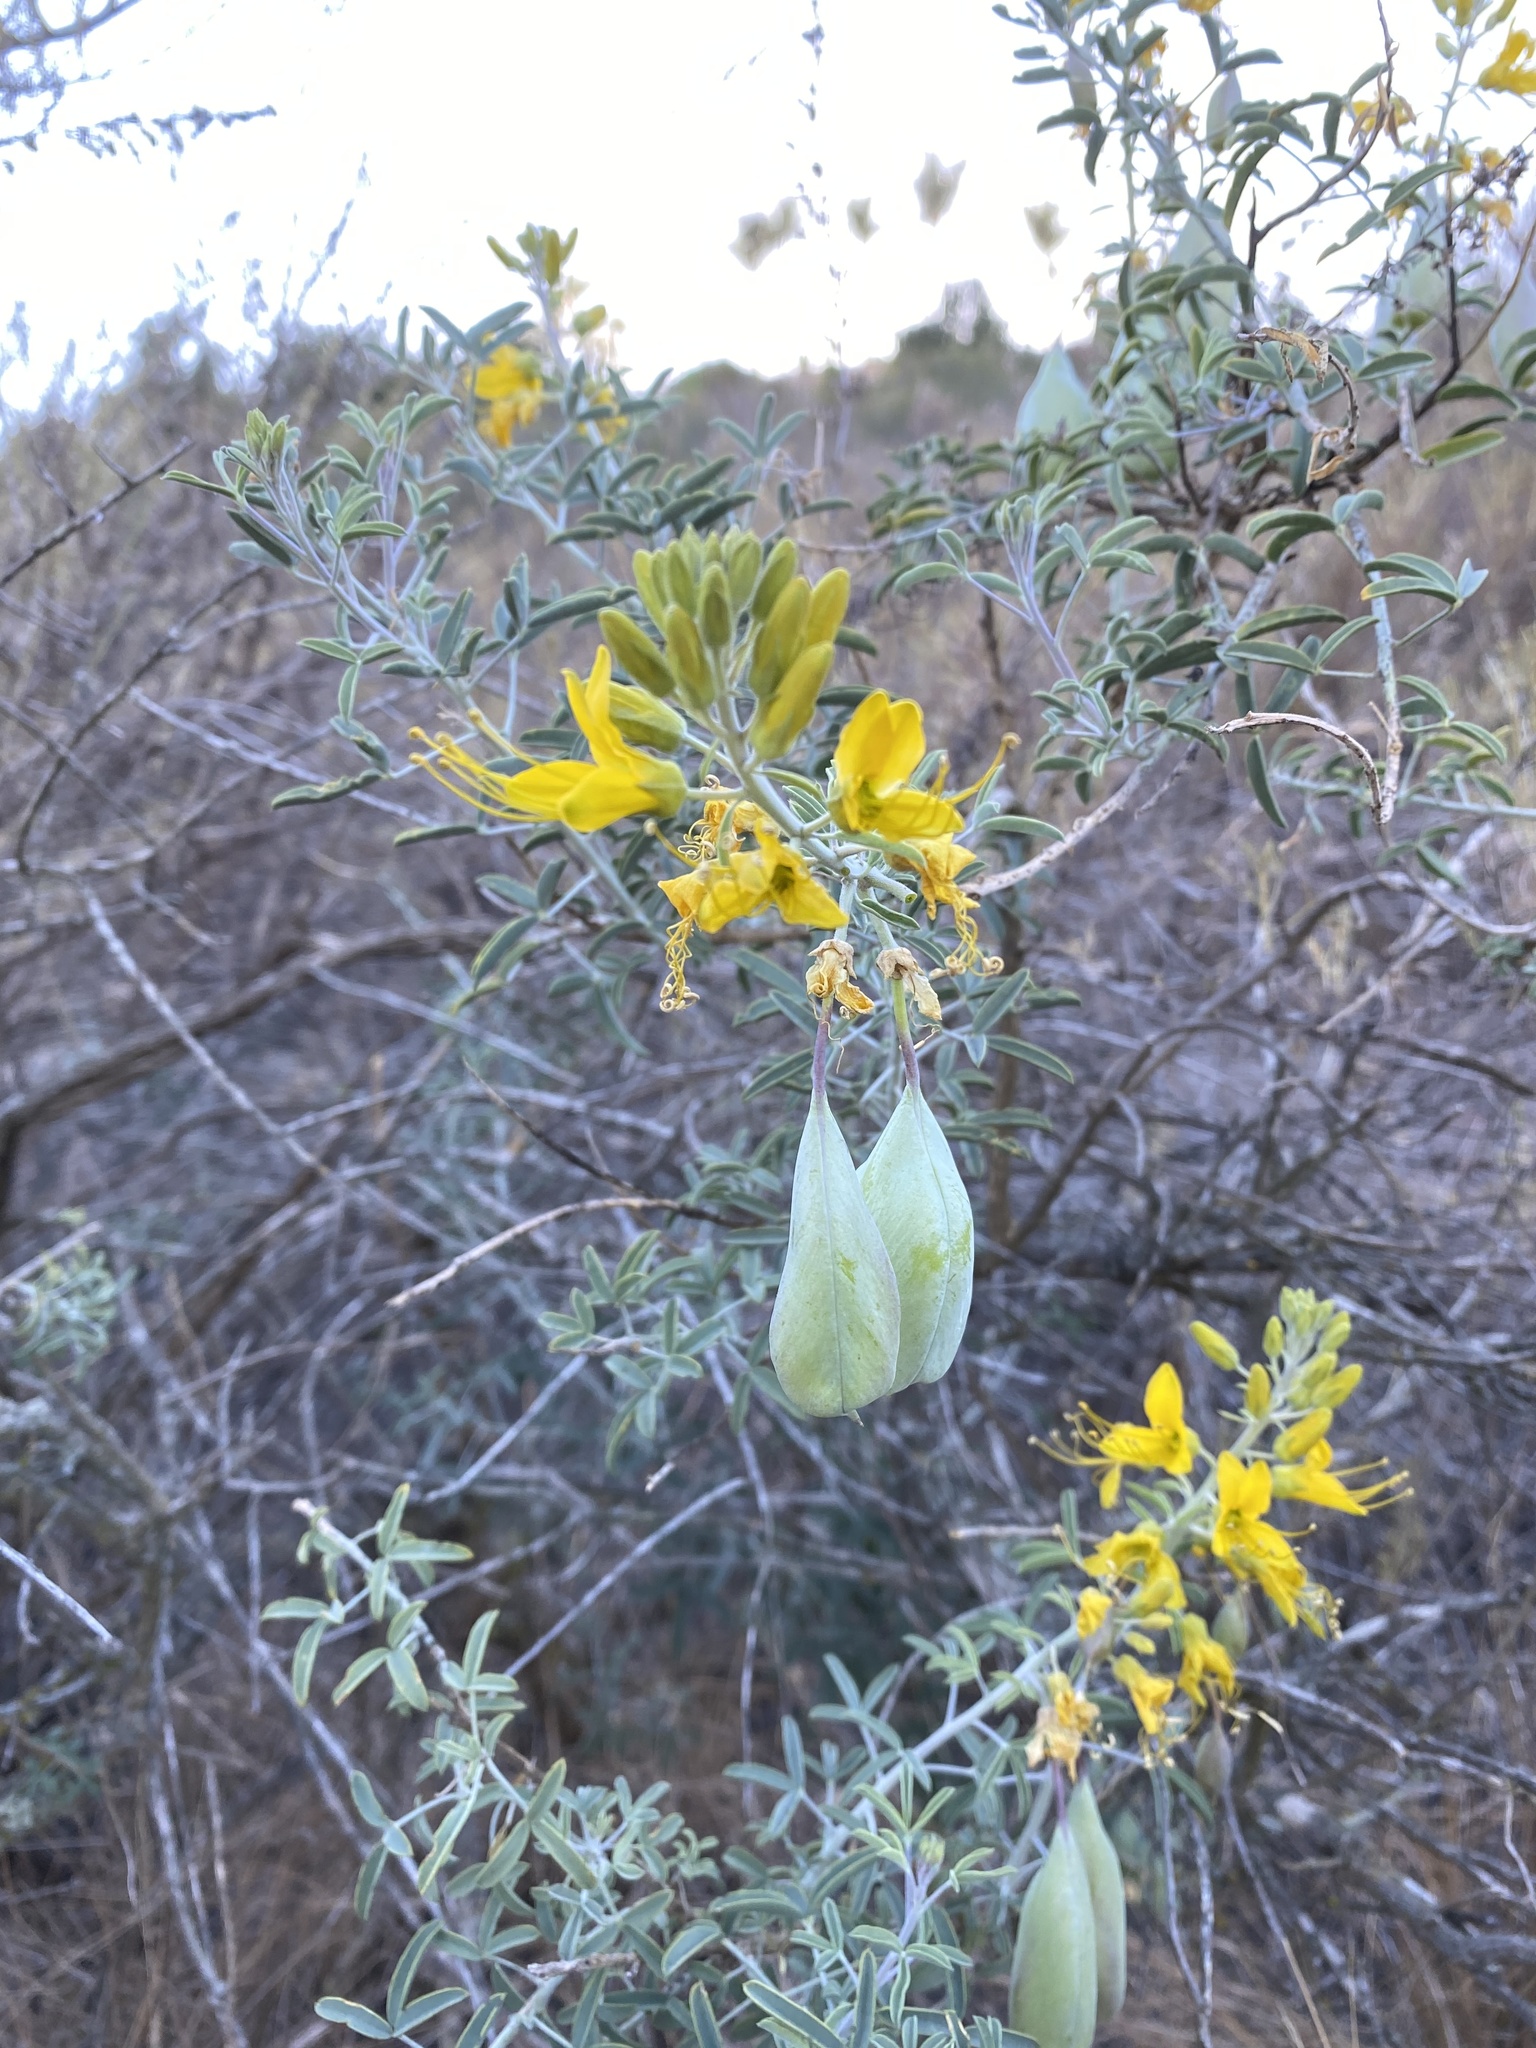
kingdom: Plantae
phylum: Tracheophyta
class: Magnoliopsida
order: Brassicales
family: Cleomaceae
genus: Cleomella
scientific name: Cleomella arborea
